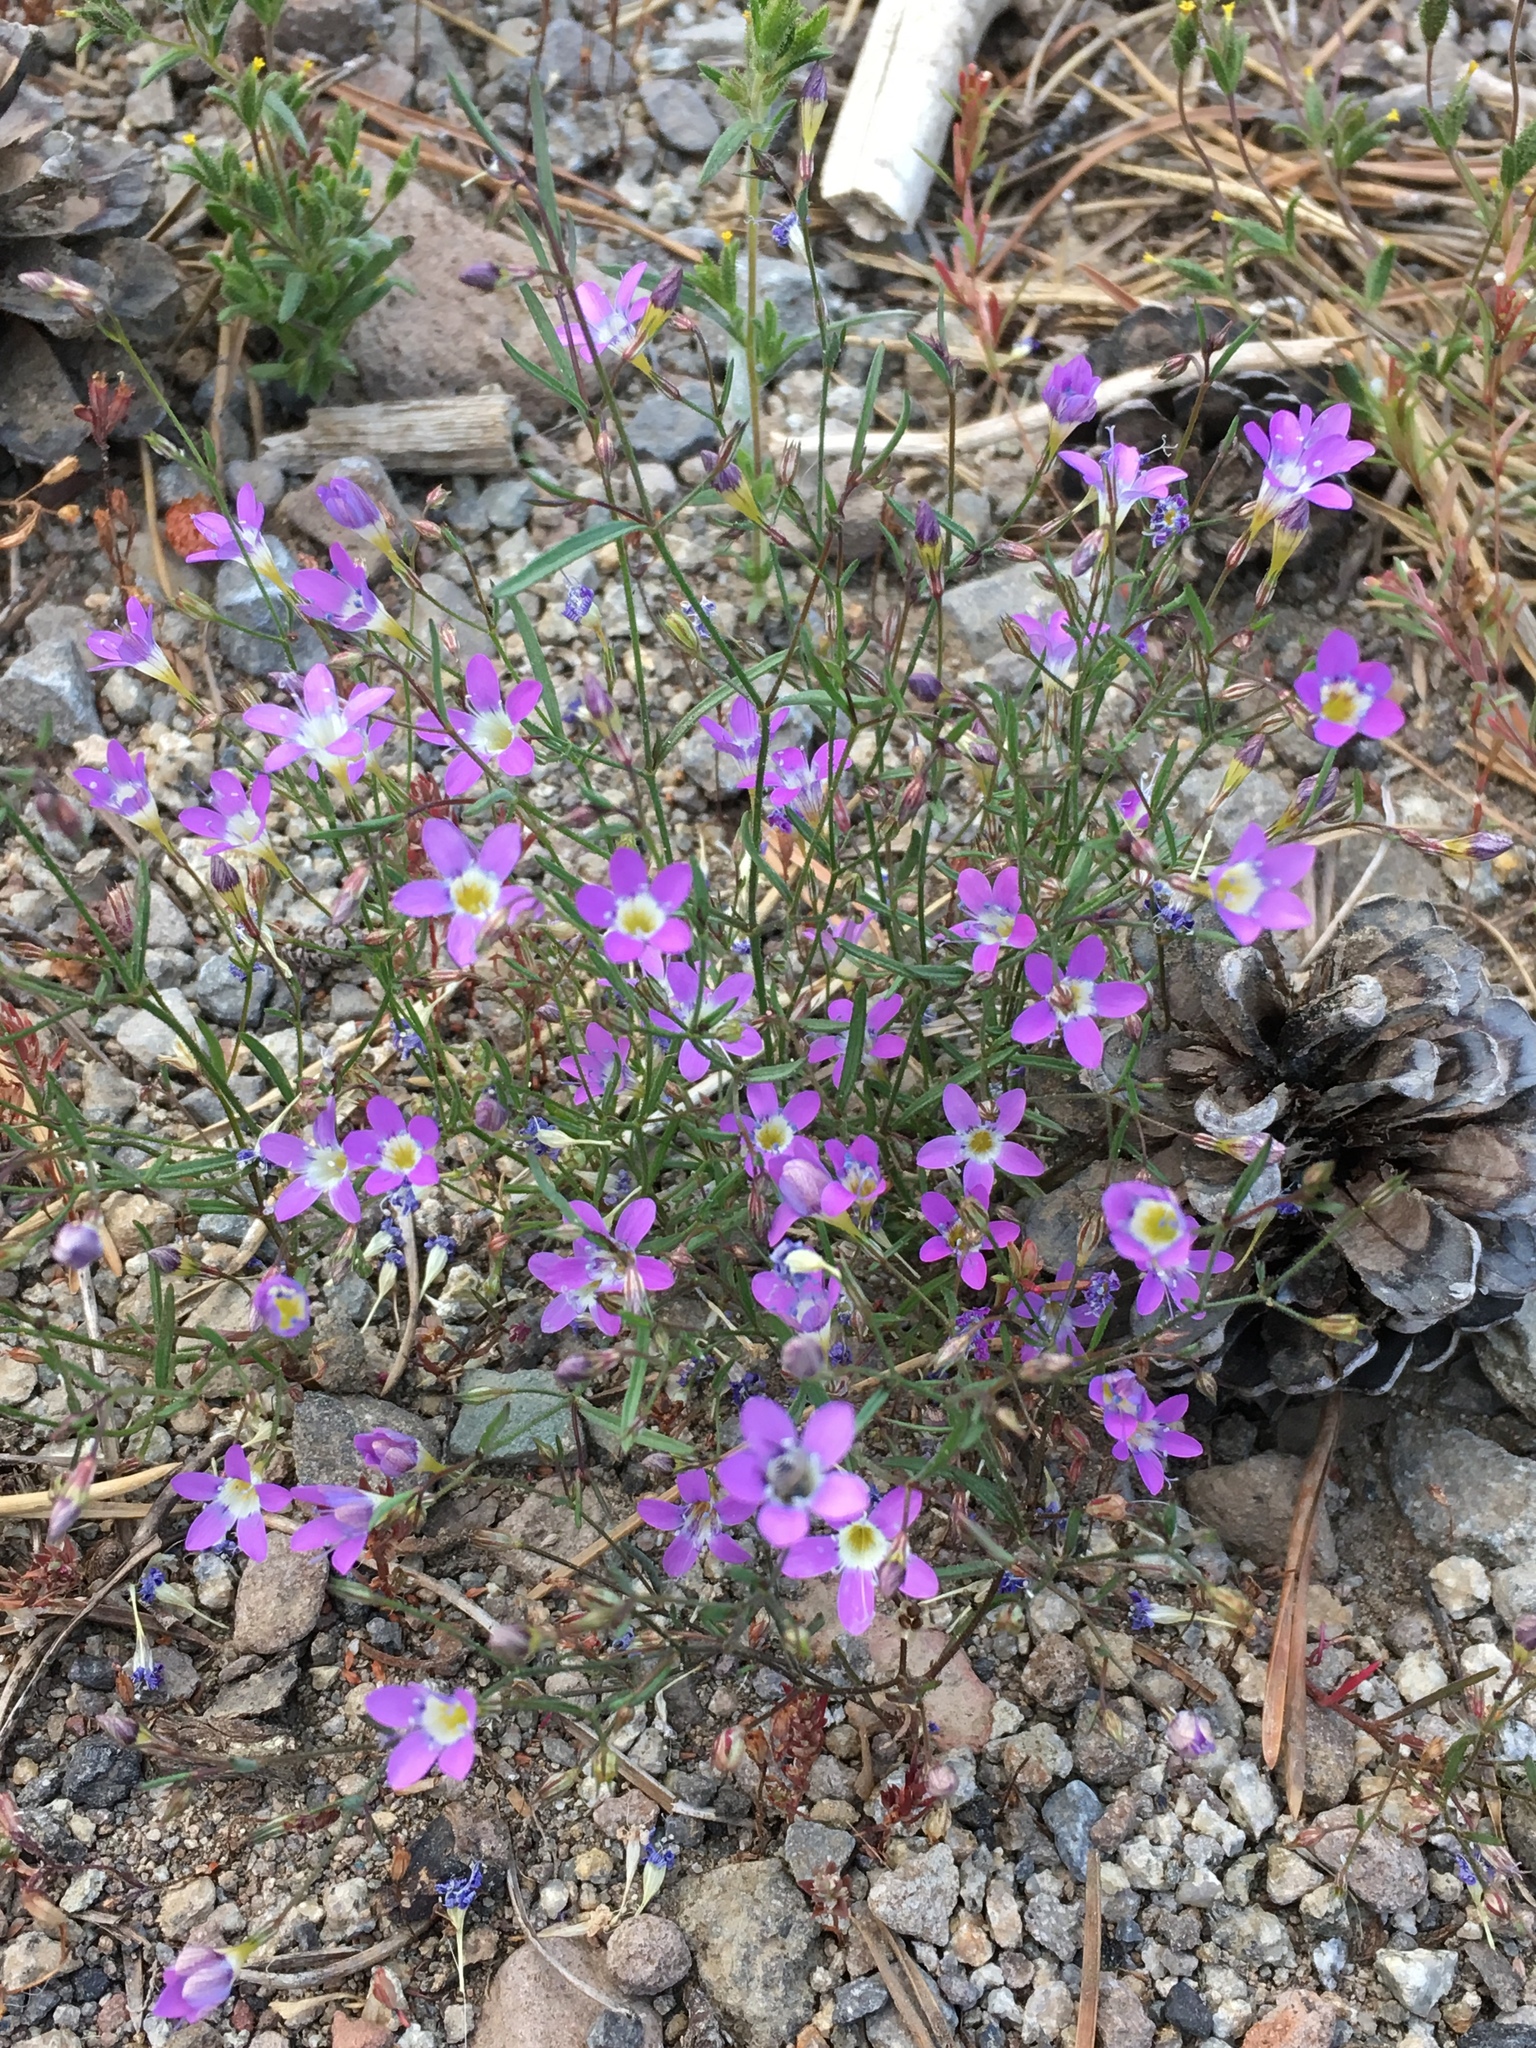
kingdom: Plantae
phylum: Tracheophyta
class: Magnoliopsida
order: Ericales
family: Polemoniaceae
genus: Navarretia
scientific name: Navarretia leptalea
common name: Bridges' pincushionplant
